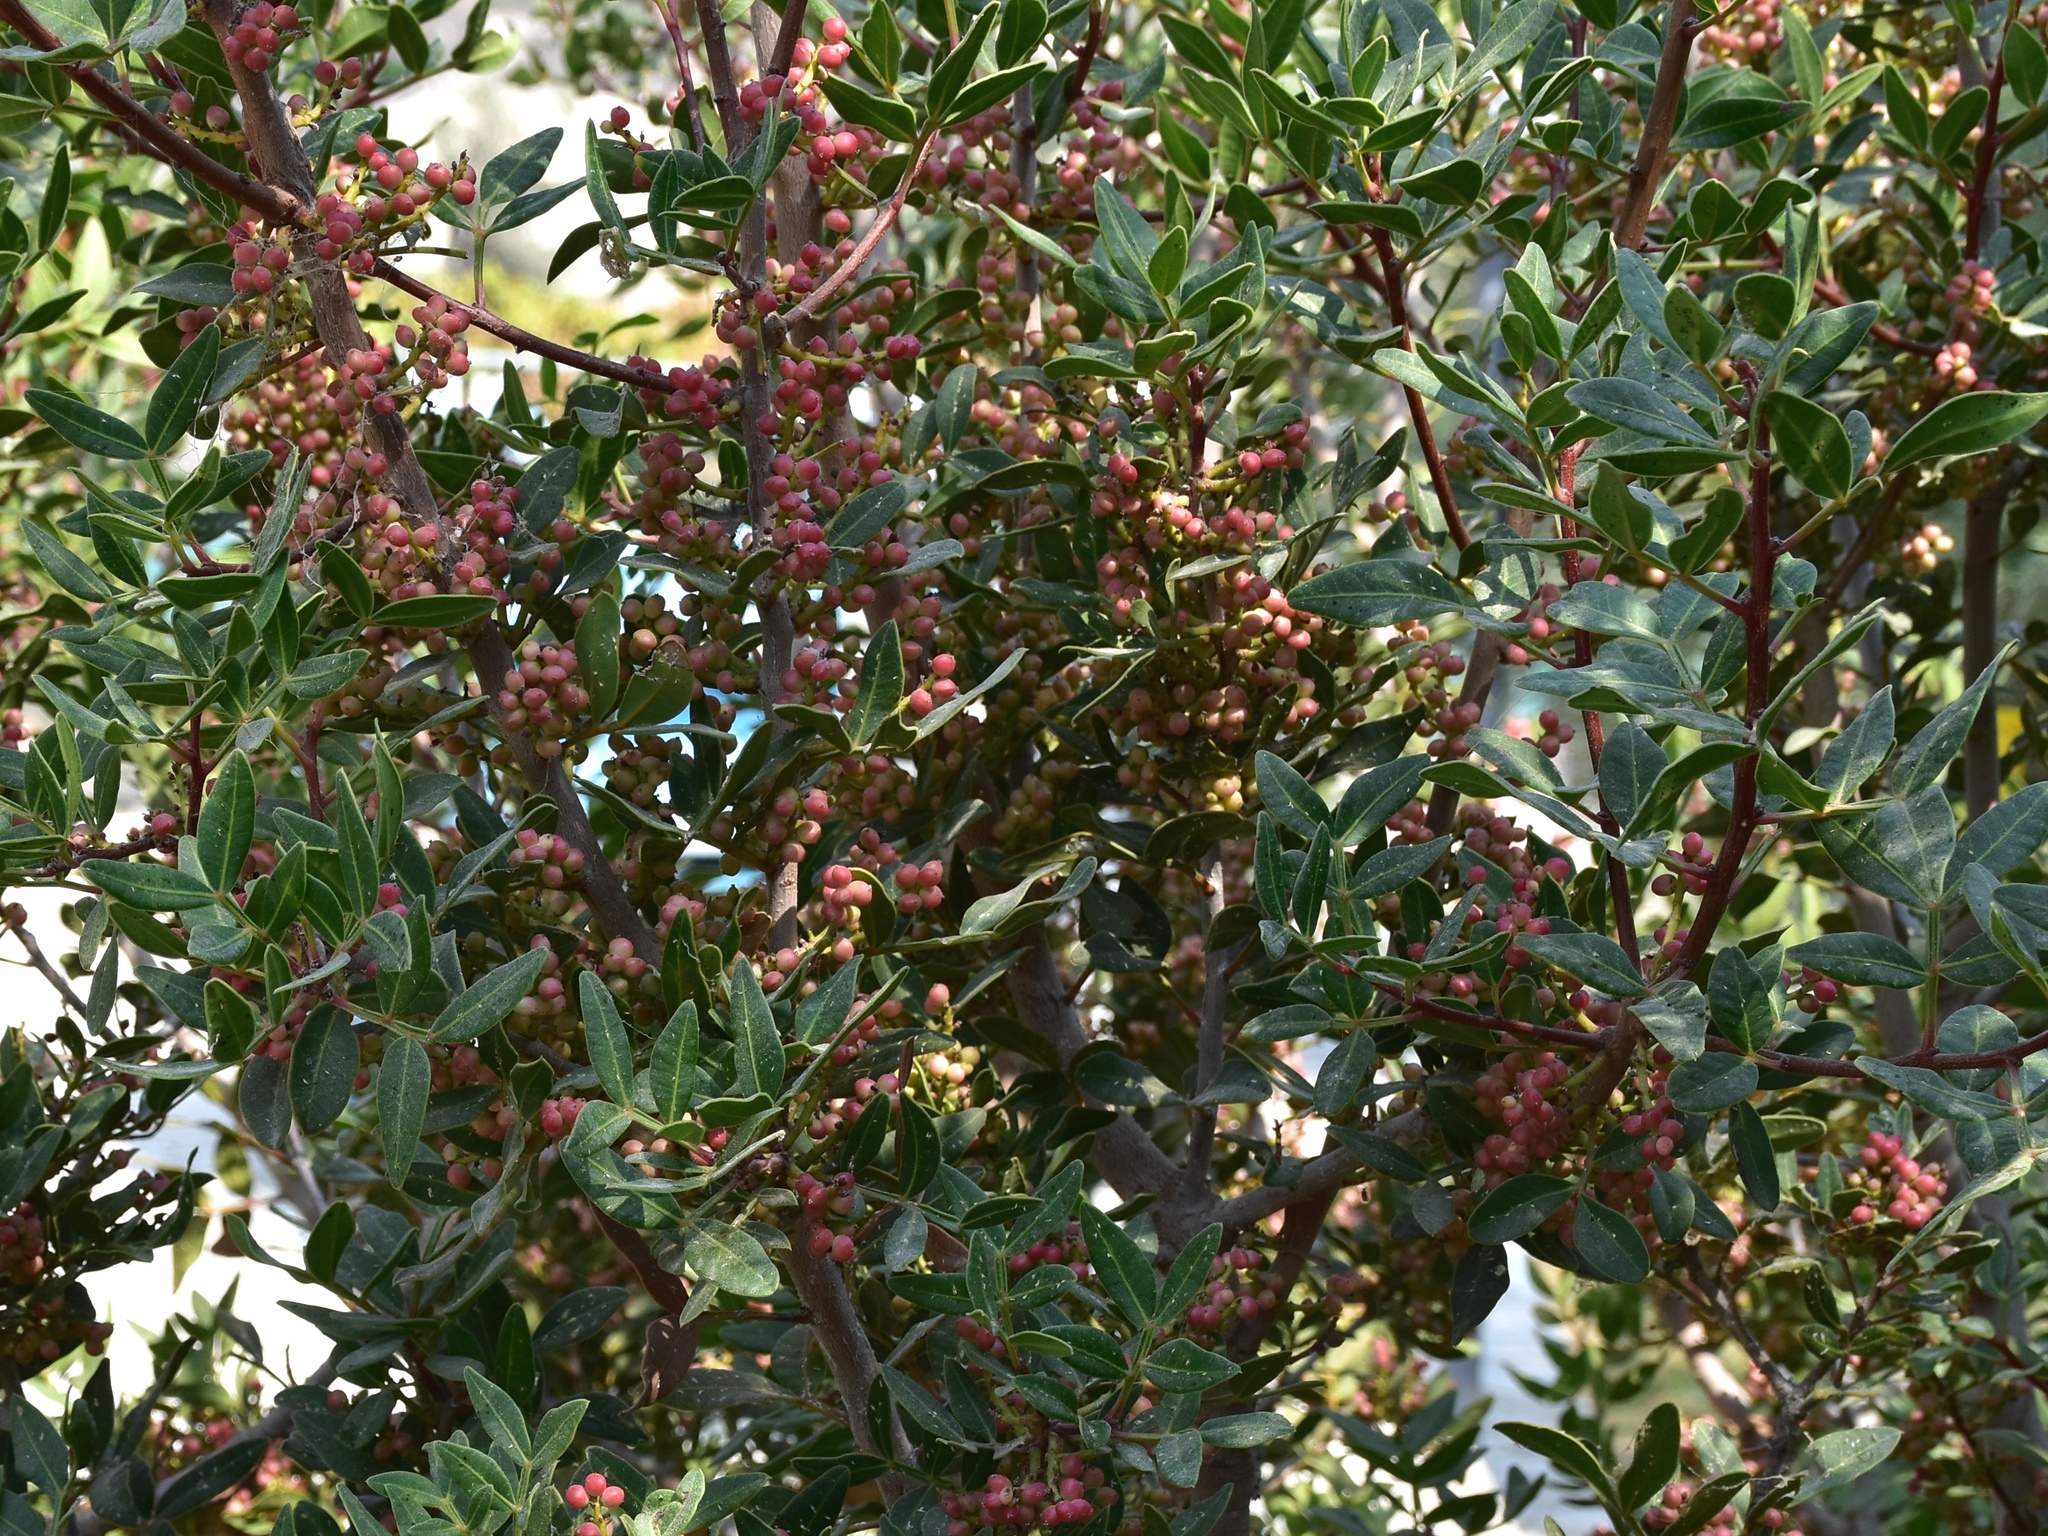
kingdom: Plantae
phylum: Tracheophyta
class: Magnoliopsida
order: Sapindales
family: Anacardiaceae
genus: Pistacia
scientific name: Pistacia lentiscus
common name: Lentisk
